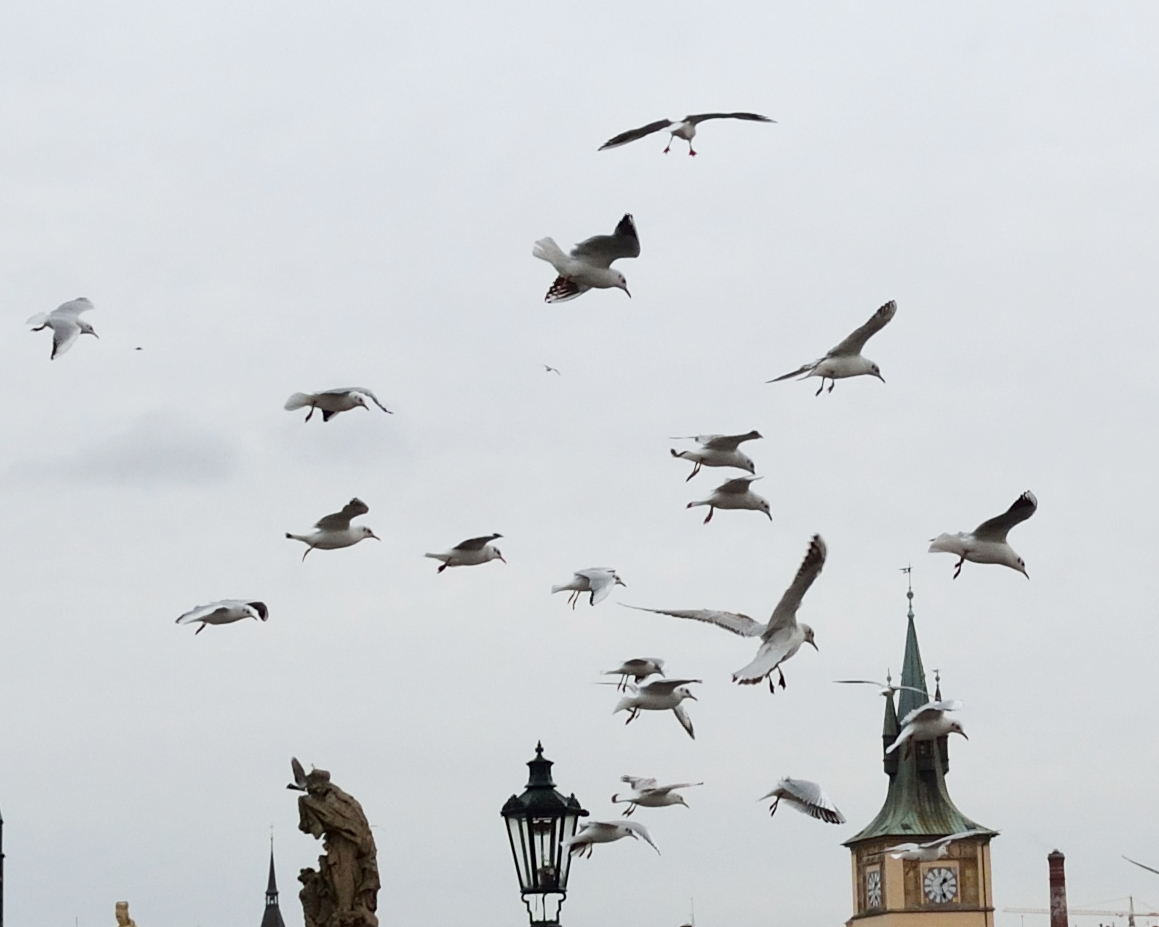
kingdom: Animalia
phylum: Chordata
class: Aves
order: Charadriiformes
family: Laridae
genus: Chroicocephalus
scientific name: Chroicocephalus ridibundus
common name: Black-headed gull
